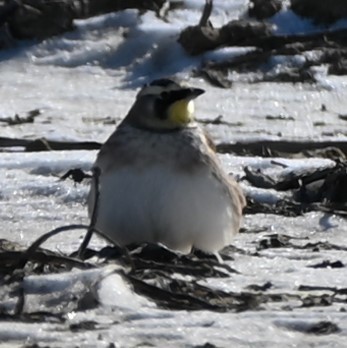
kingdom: Animalia
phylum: Chordata
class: Aves
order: Passeriformes
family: Alaudidae
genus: Eremophila
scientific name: Eremophila alpestris
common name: Horned lark
